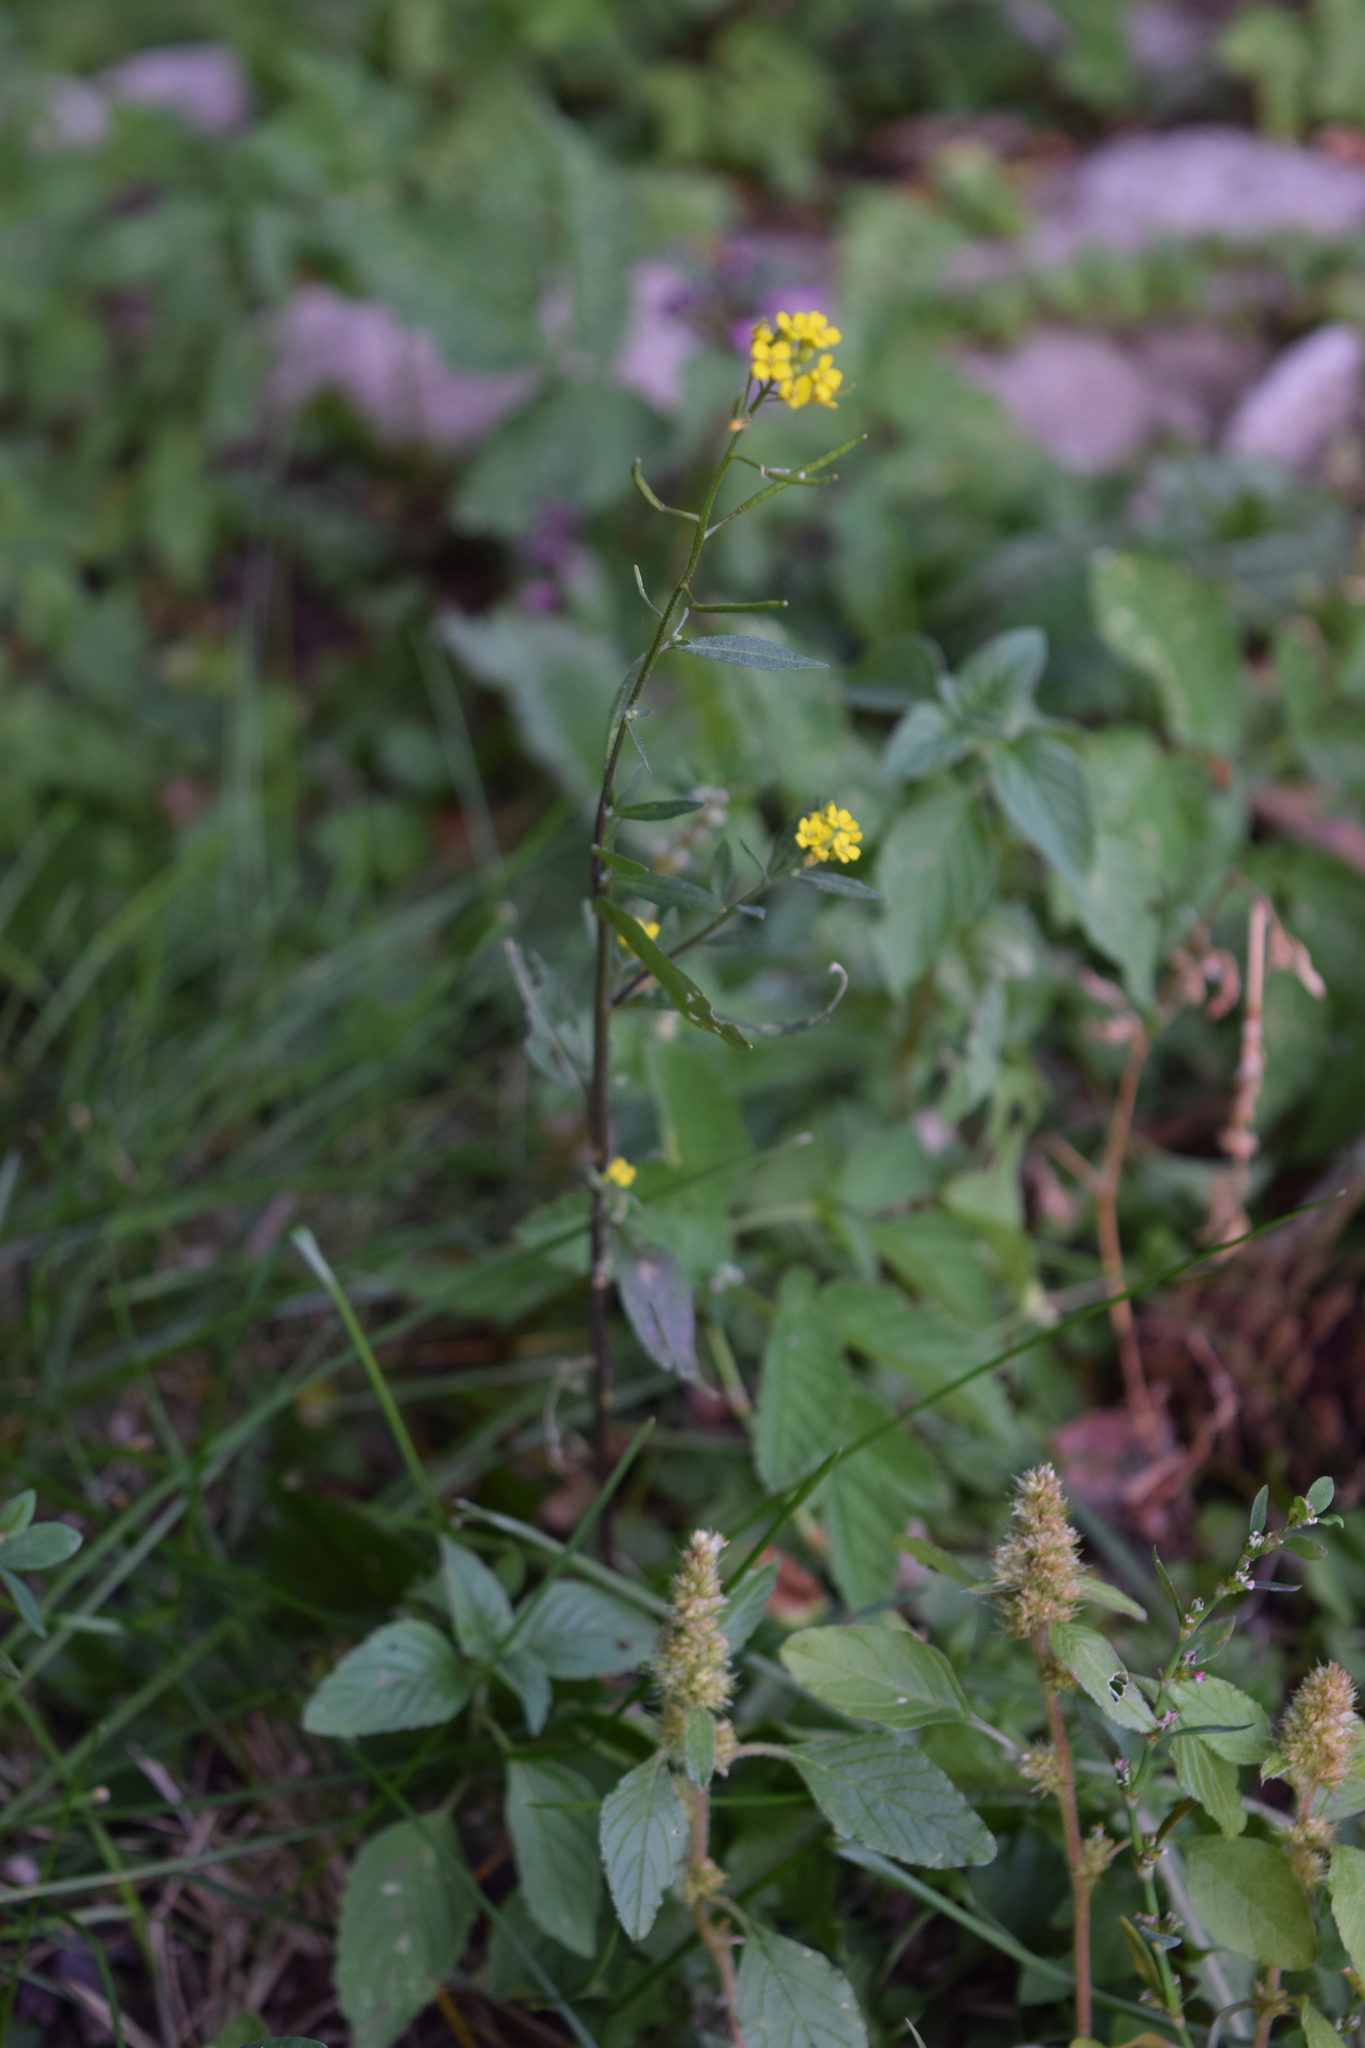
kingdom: Plantae
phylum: Tracheophyta
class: Magnoliopsida
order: Brassicales
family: Brassicaceae
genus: Erysimum
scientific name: Erysimum cheiranthoides
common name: Treacle mustard
